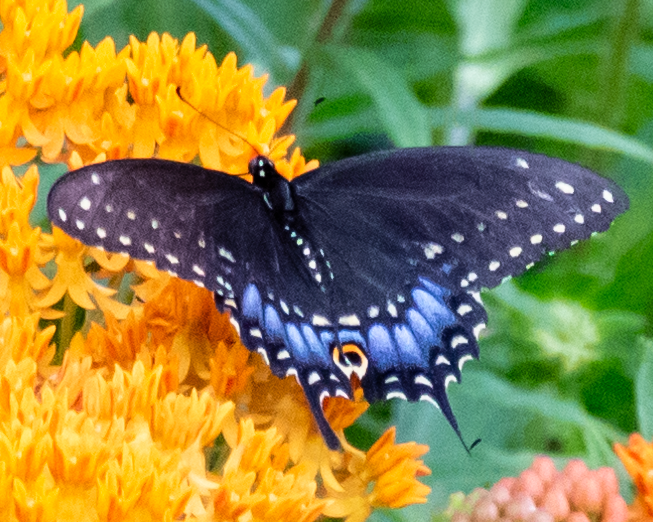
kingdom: Animalia
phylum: Arthropoda
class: Insecta
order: Lepidoptera
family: Papilionidae
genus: Papilio
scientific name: Papilio polyxenes
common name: Black swallowtail
